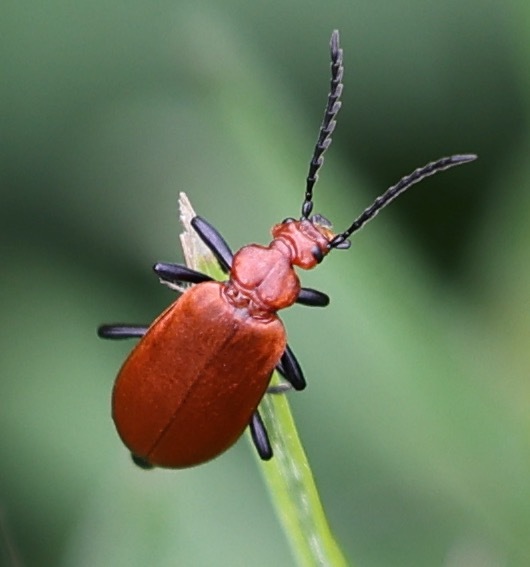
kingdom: Animalia
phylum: Arthropoda
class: Insecta
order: Coleoptera
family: Pyrochroidae
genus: Pyrochroa
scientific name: Pyrochroa serraticornis
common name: Red-headed cardinal beetle
